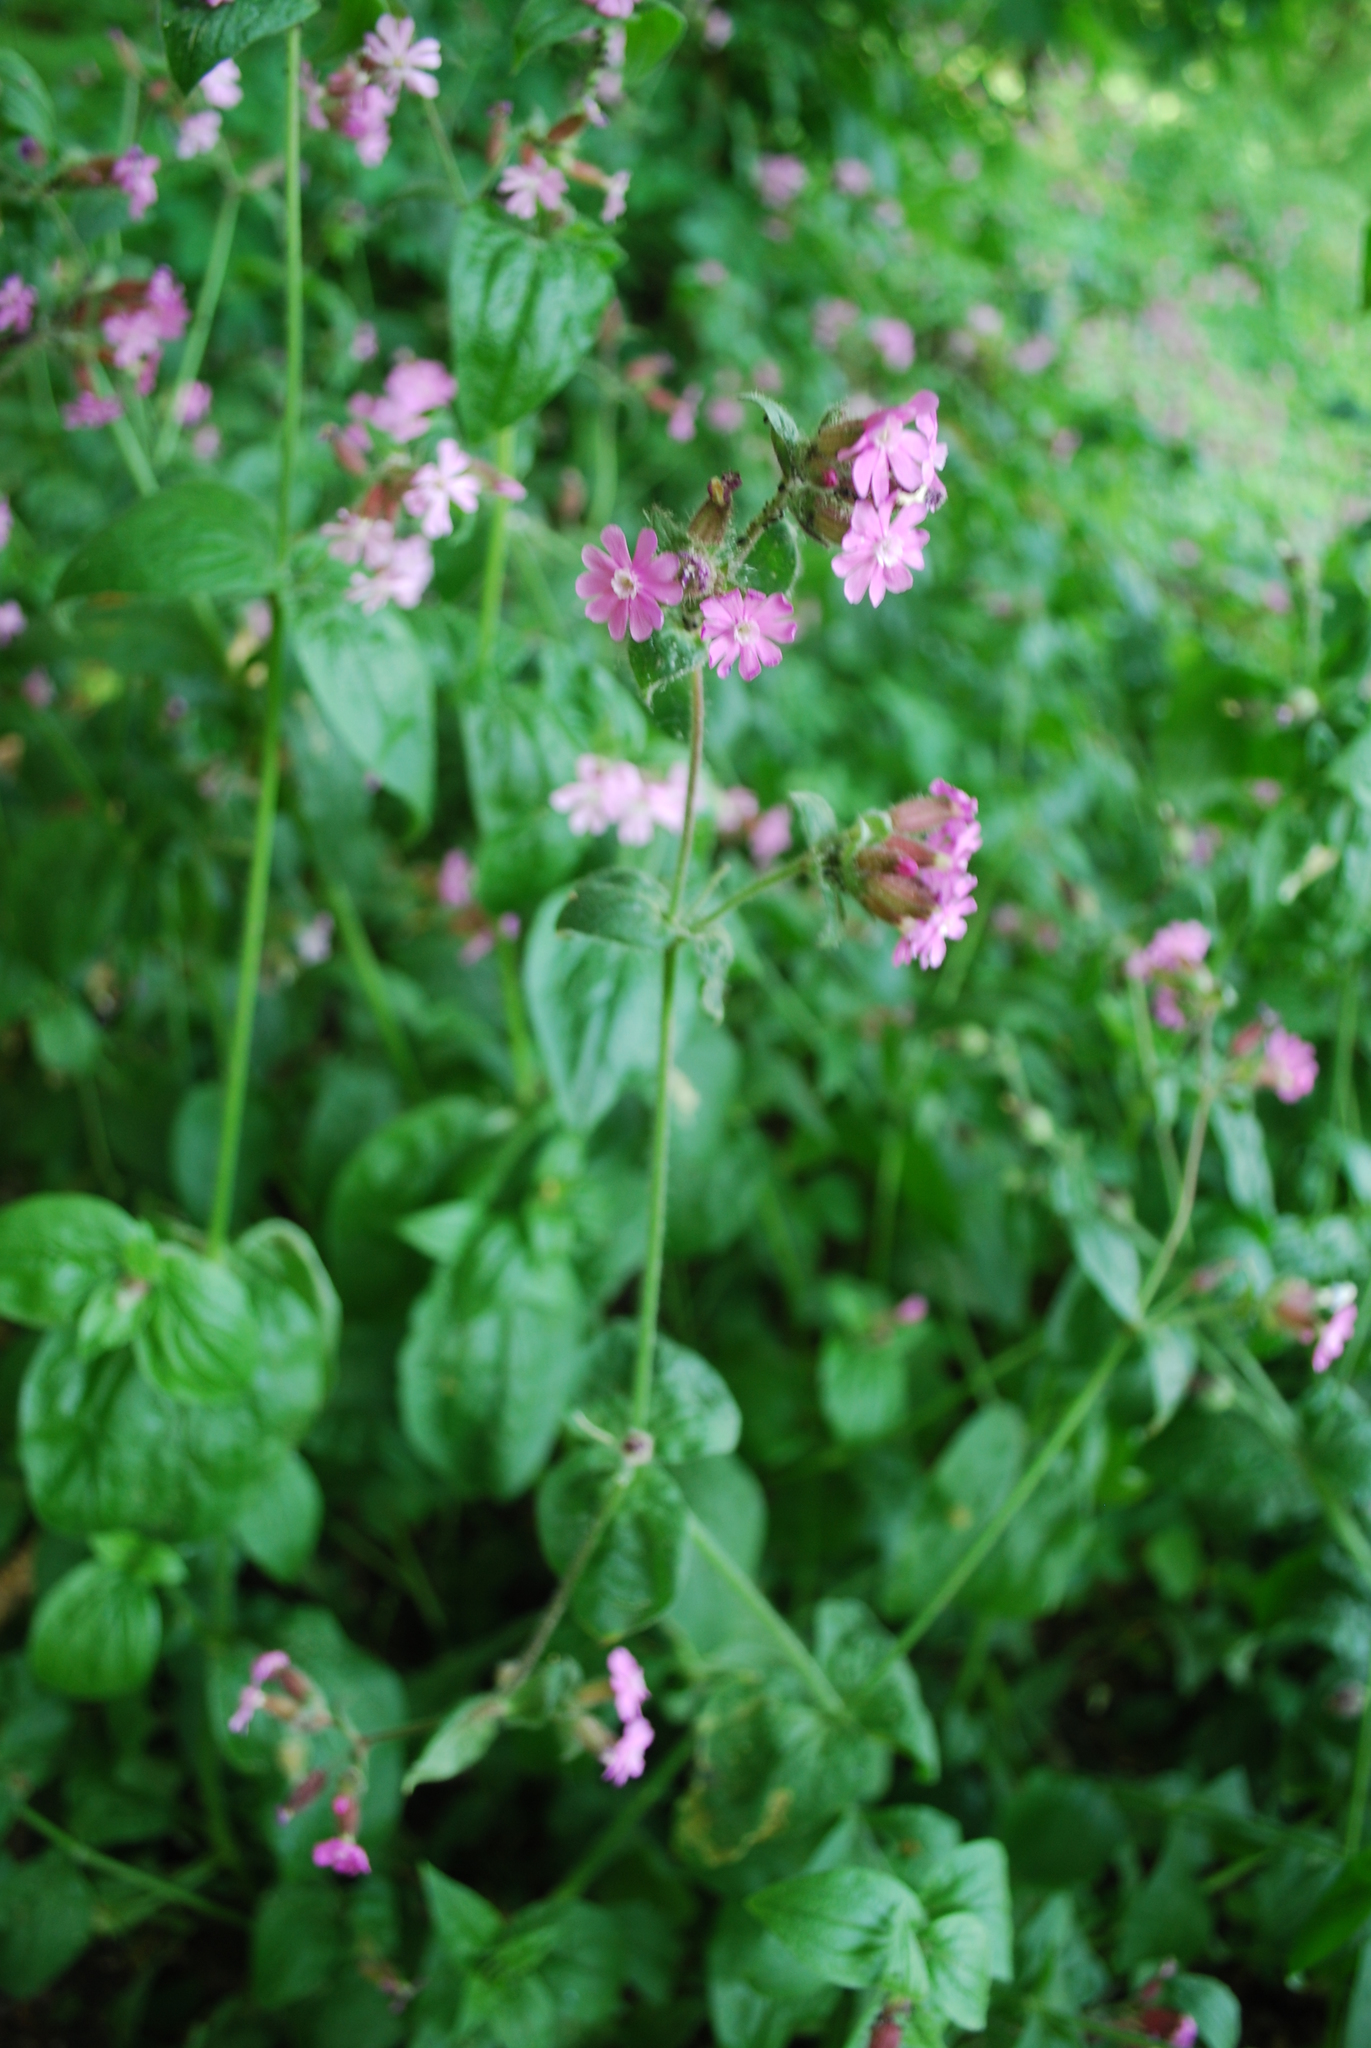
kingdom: Plantae
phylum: Tracheophyta
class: Magnoliopsida
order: Caryophyllales
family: Caryophyllaceae
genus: Silene
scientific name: Silene dioica
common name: Red campion
